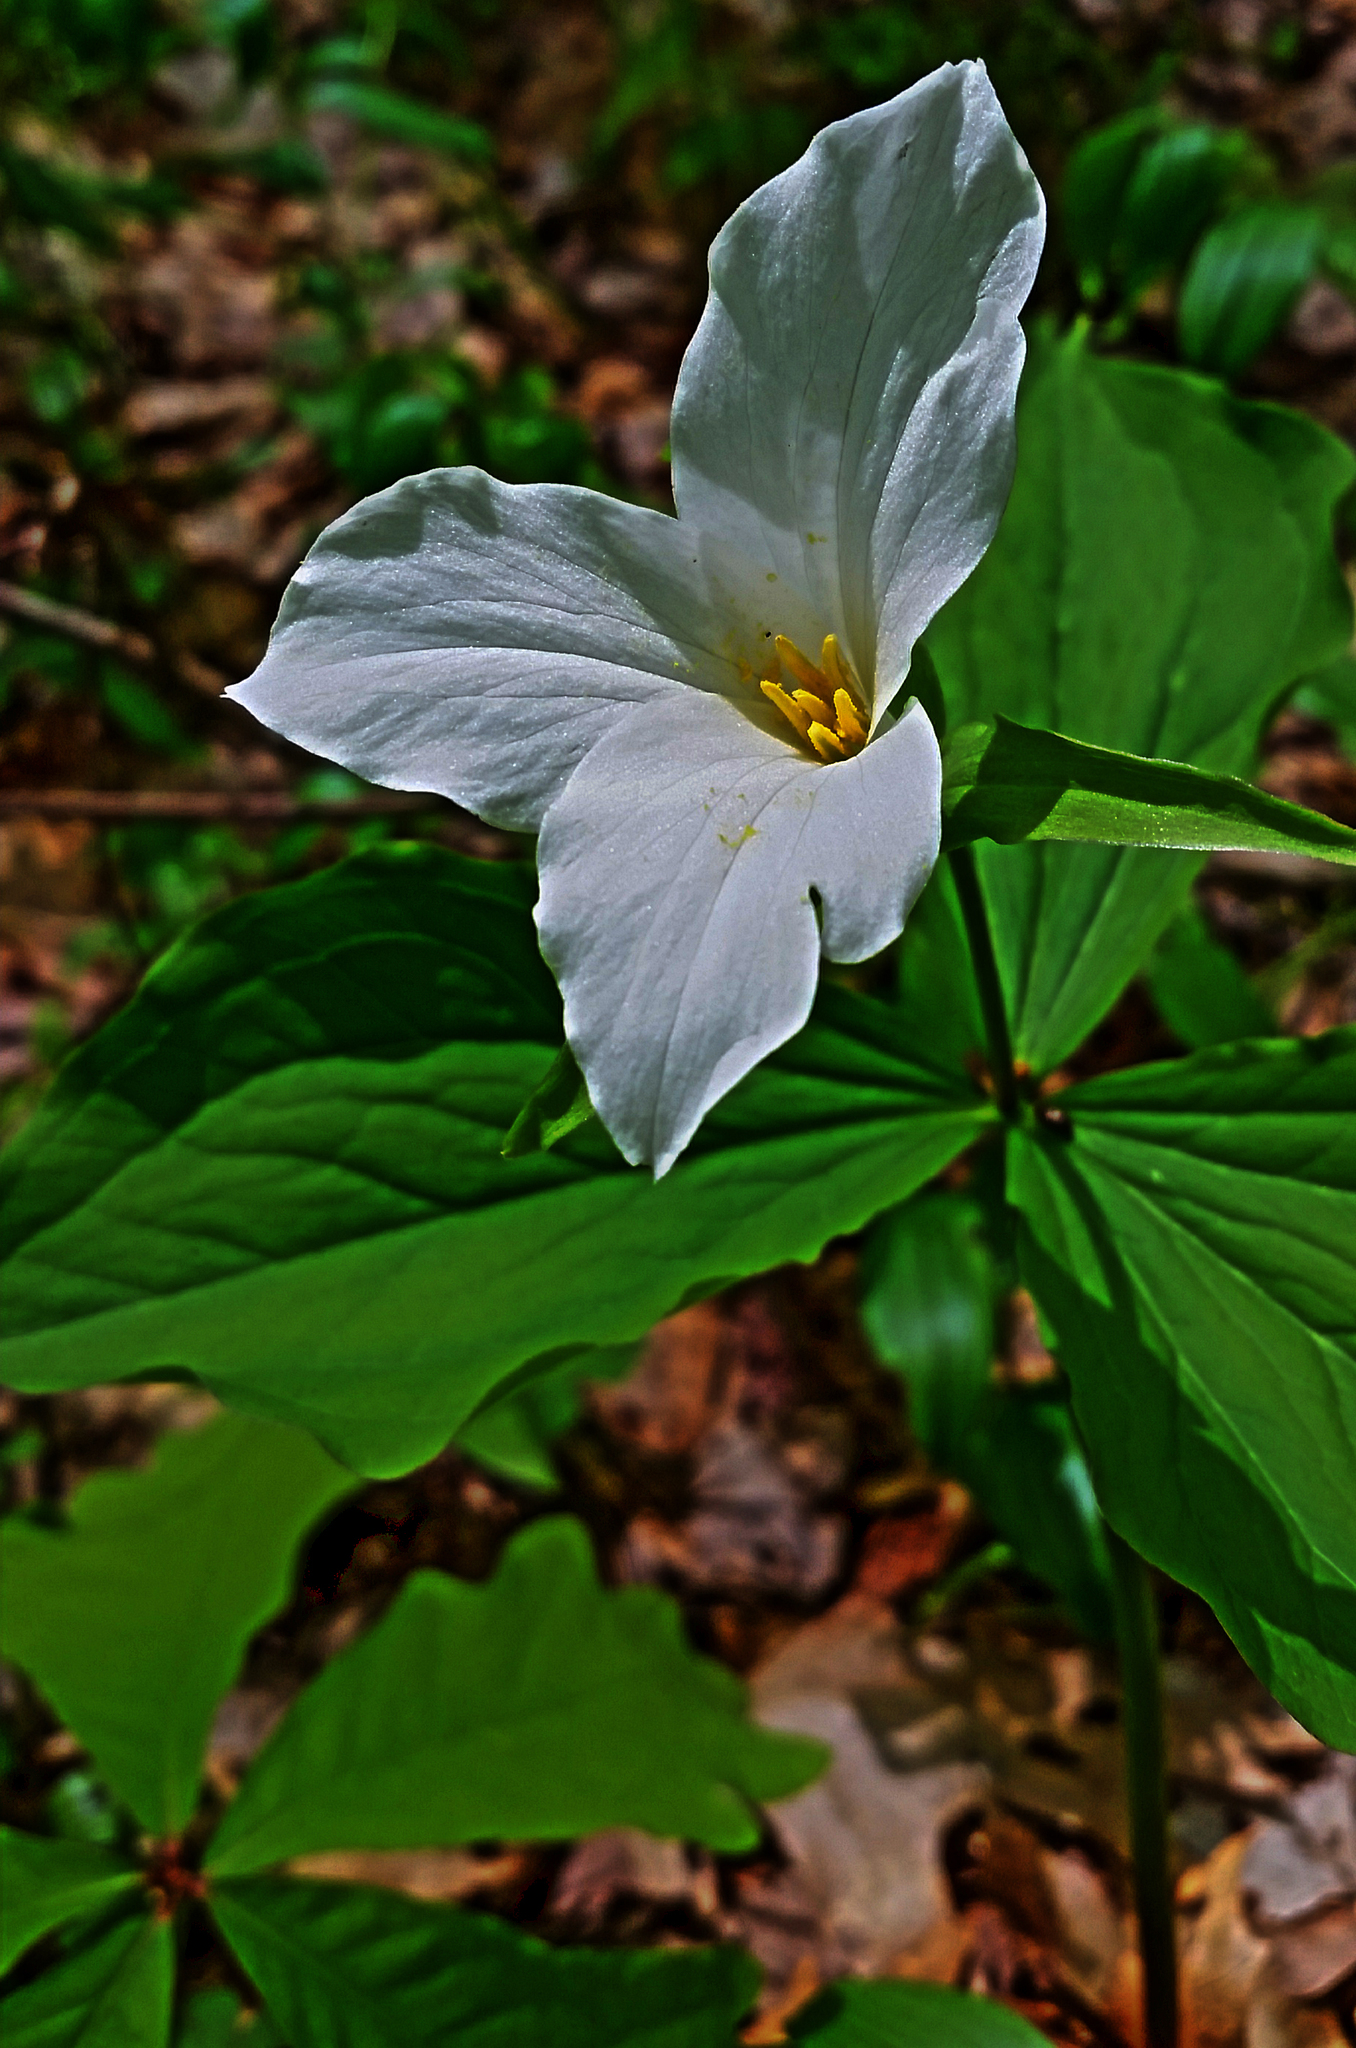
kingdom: Plantae
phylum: Tracheophyta
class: Liliopsida
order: Liliales
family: Melanthiaceae
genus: Trillium
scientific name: Trillium grandiflorum
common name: Great white trillium
